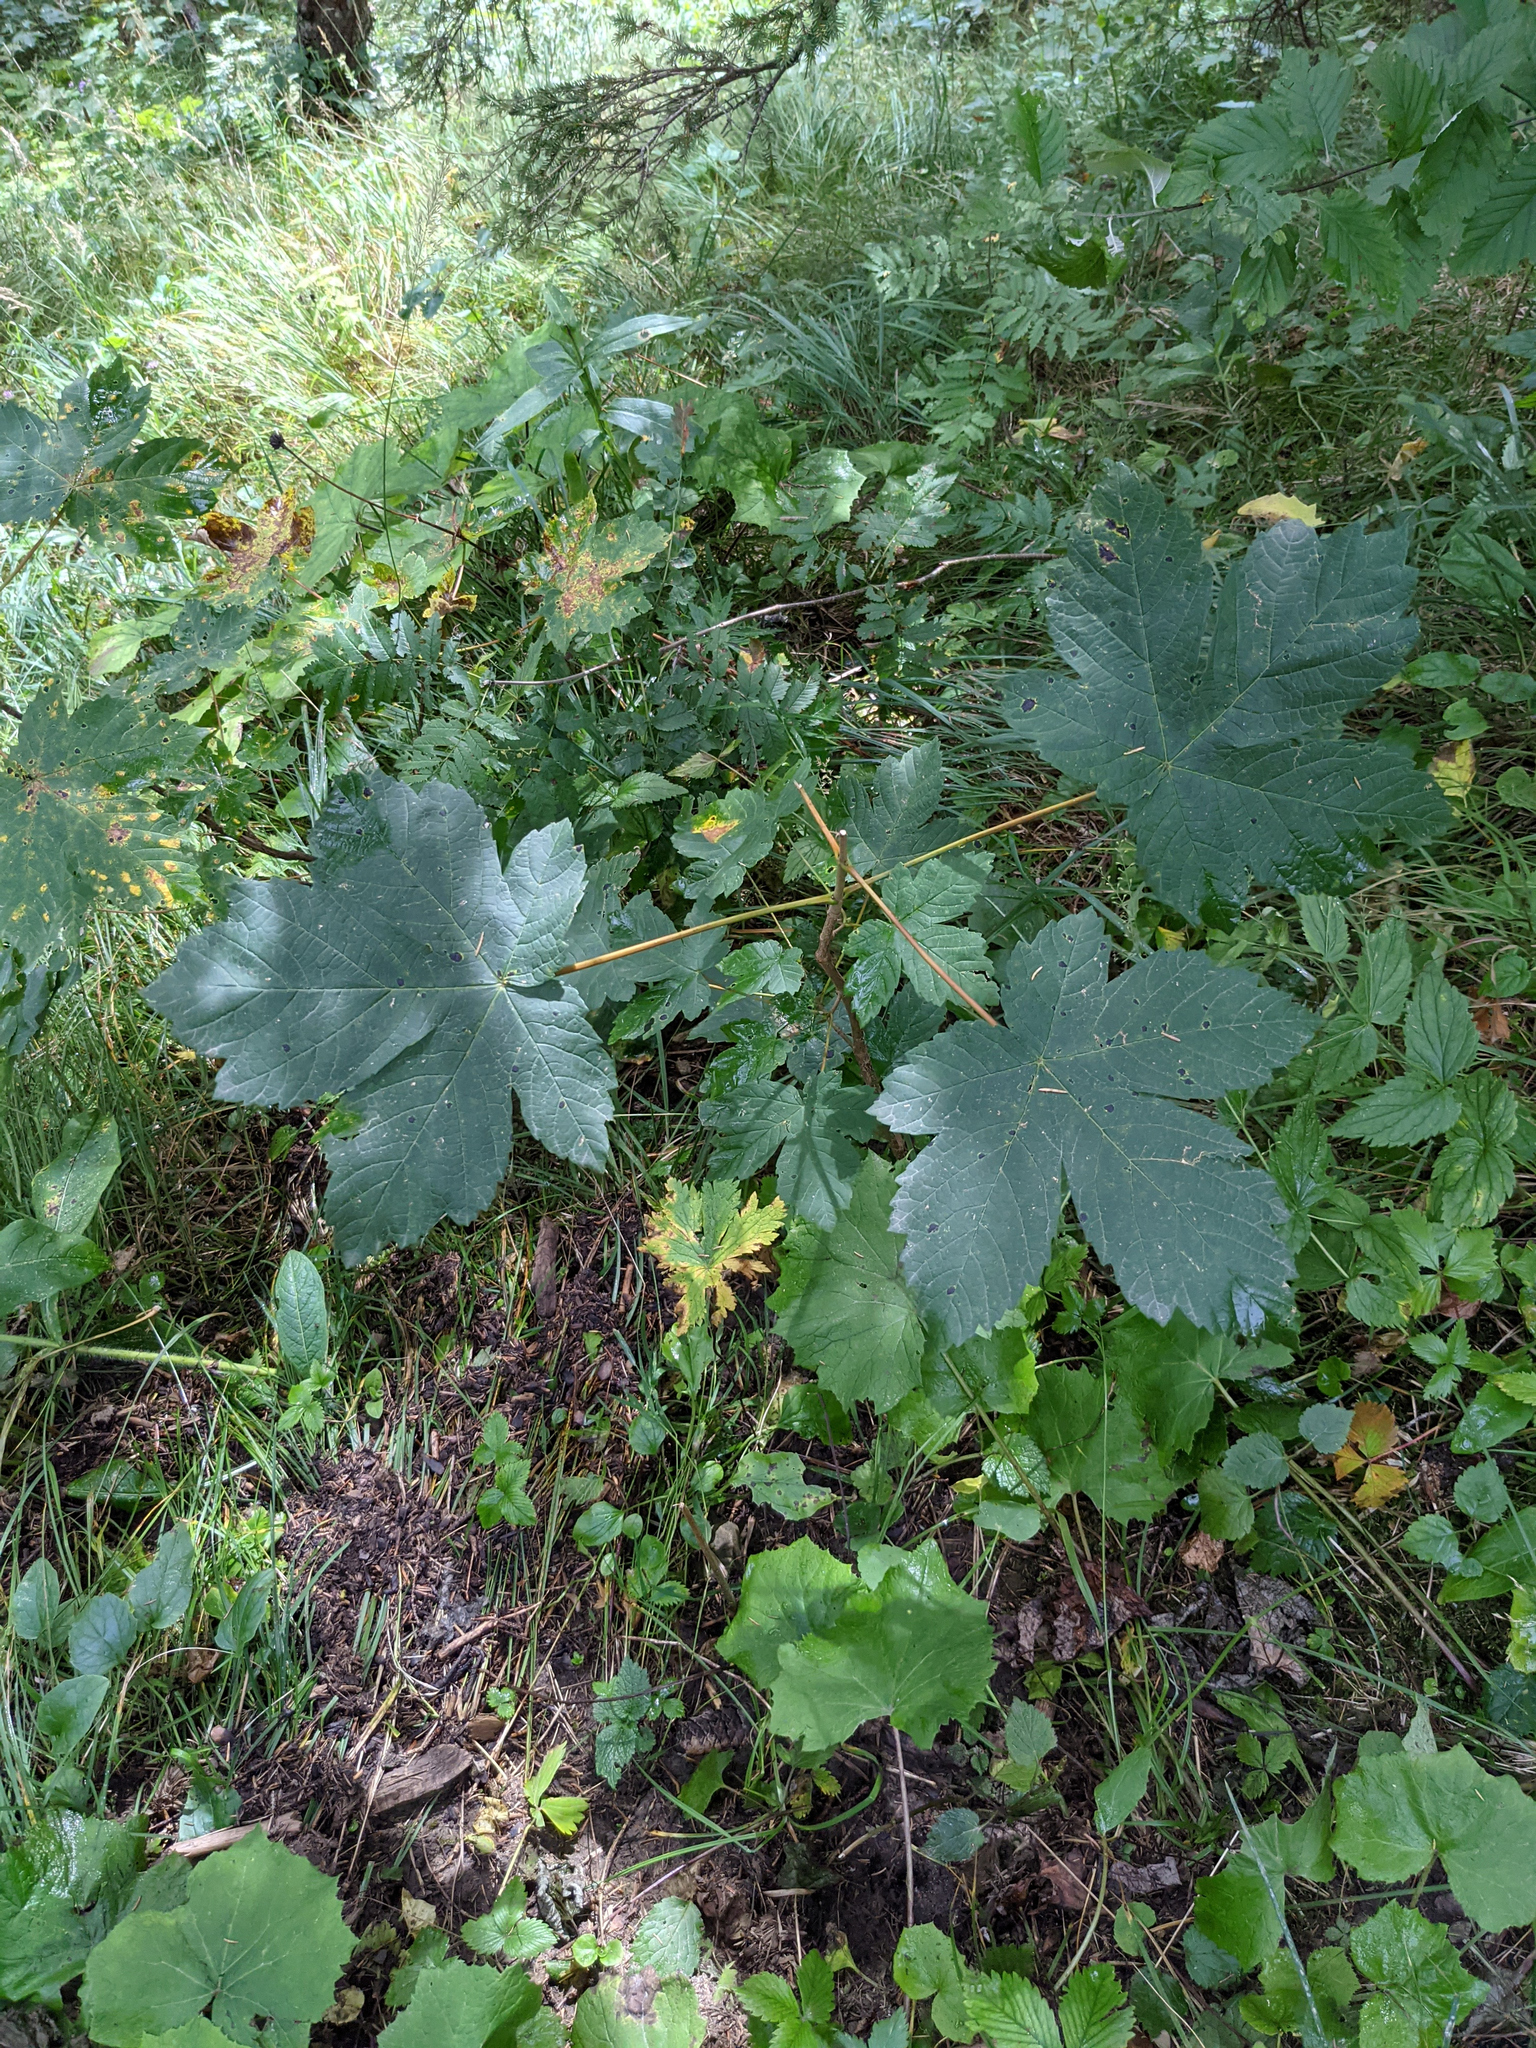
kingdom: Plantae
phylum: Tracheophyta
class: Magnoliopsida
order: Sapindales
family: Sapindaceae
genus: Acer
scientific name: Acer pseudoplatanus
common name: Sycamore
